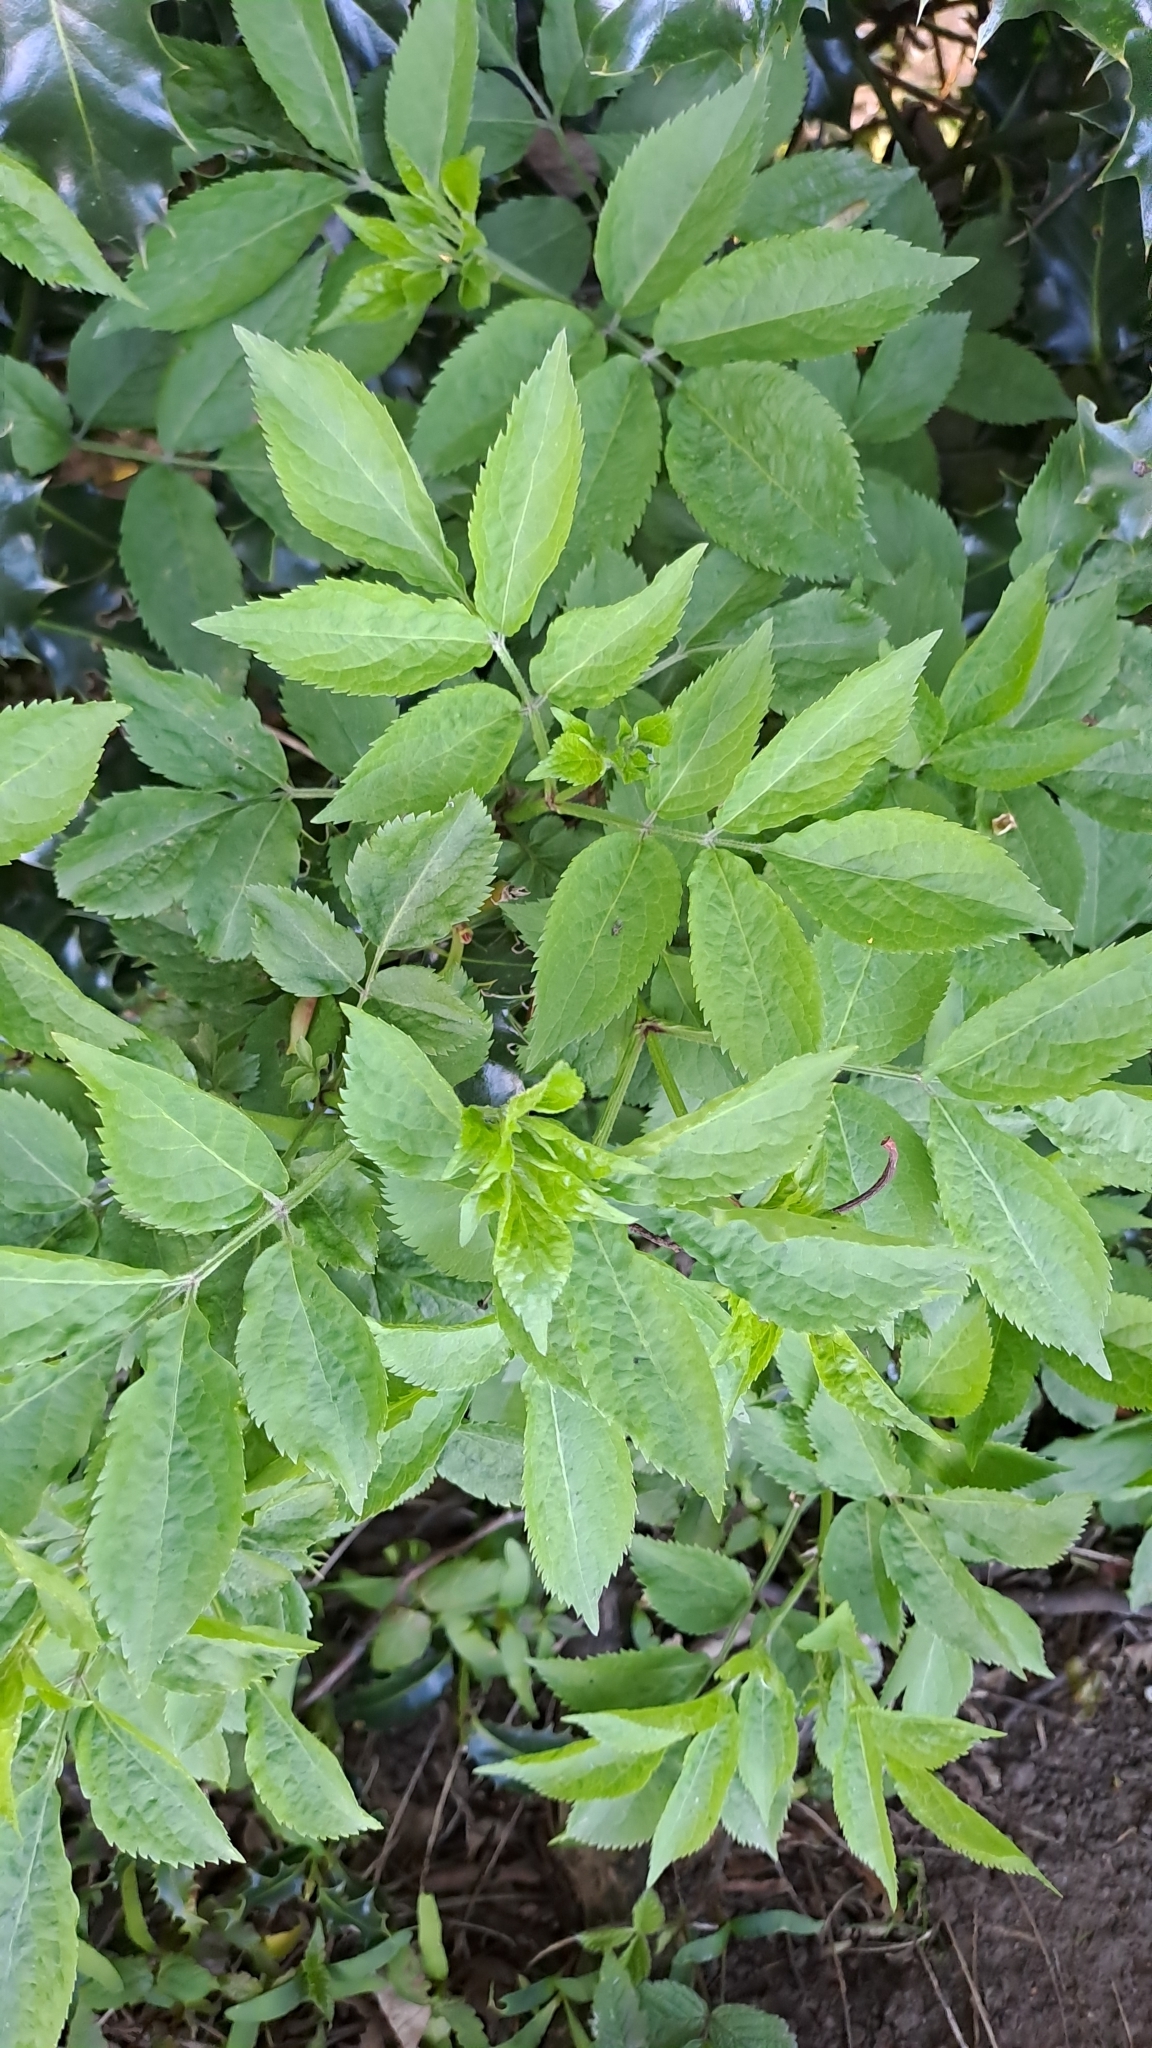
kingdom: Plantae
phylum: Tracheophyta
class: Magnoliopsida
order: Dipsacales
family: Viburnaceae
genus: Sambucus
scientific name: Sambucus nigra
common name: Elder
